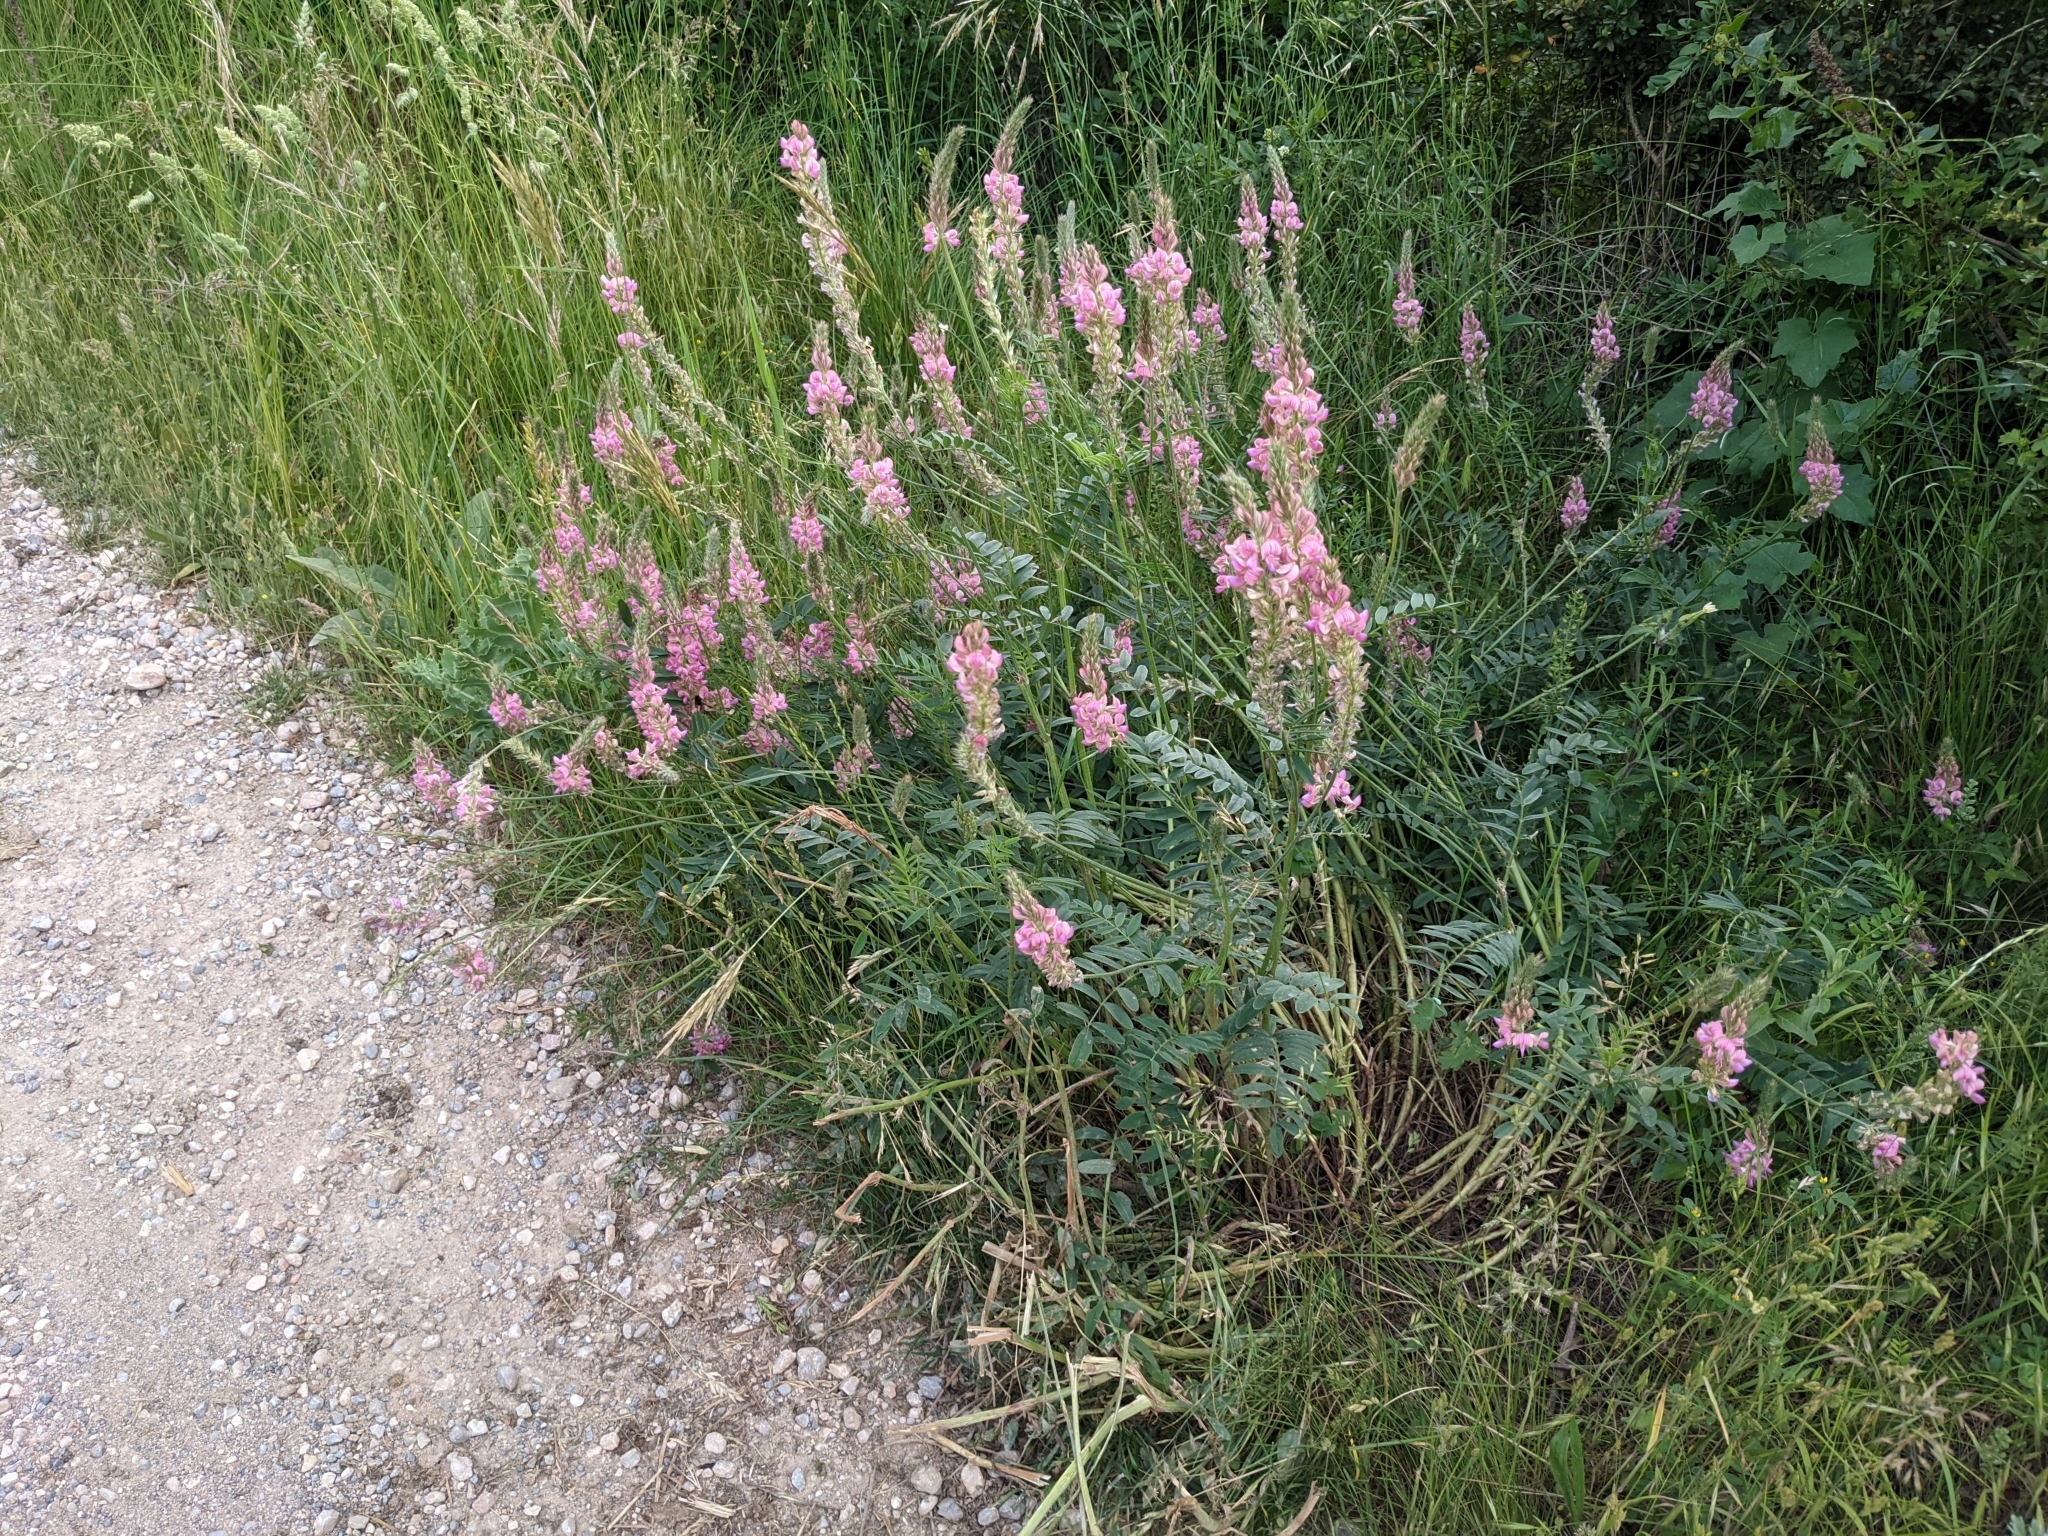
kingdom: Plantae
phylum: Tracheophyta
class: Magnoliopsida
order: Fabales
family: Fabaceae
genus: Onobrychis
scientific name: Onobrychis viciifolia
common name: Sainfoin
